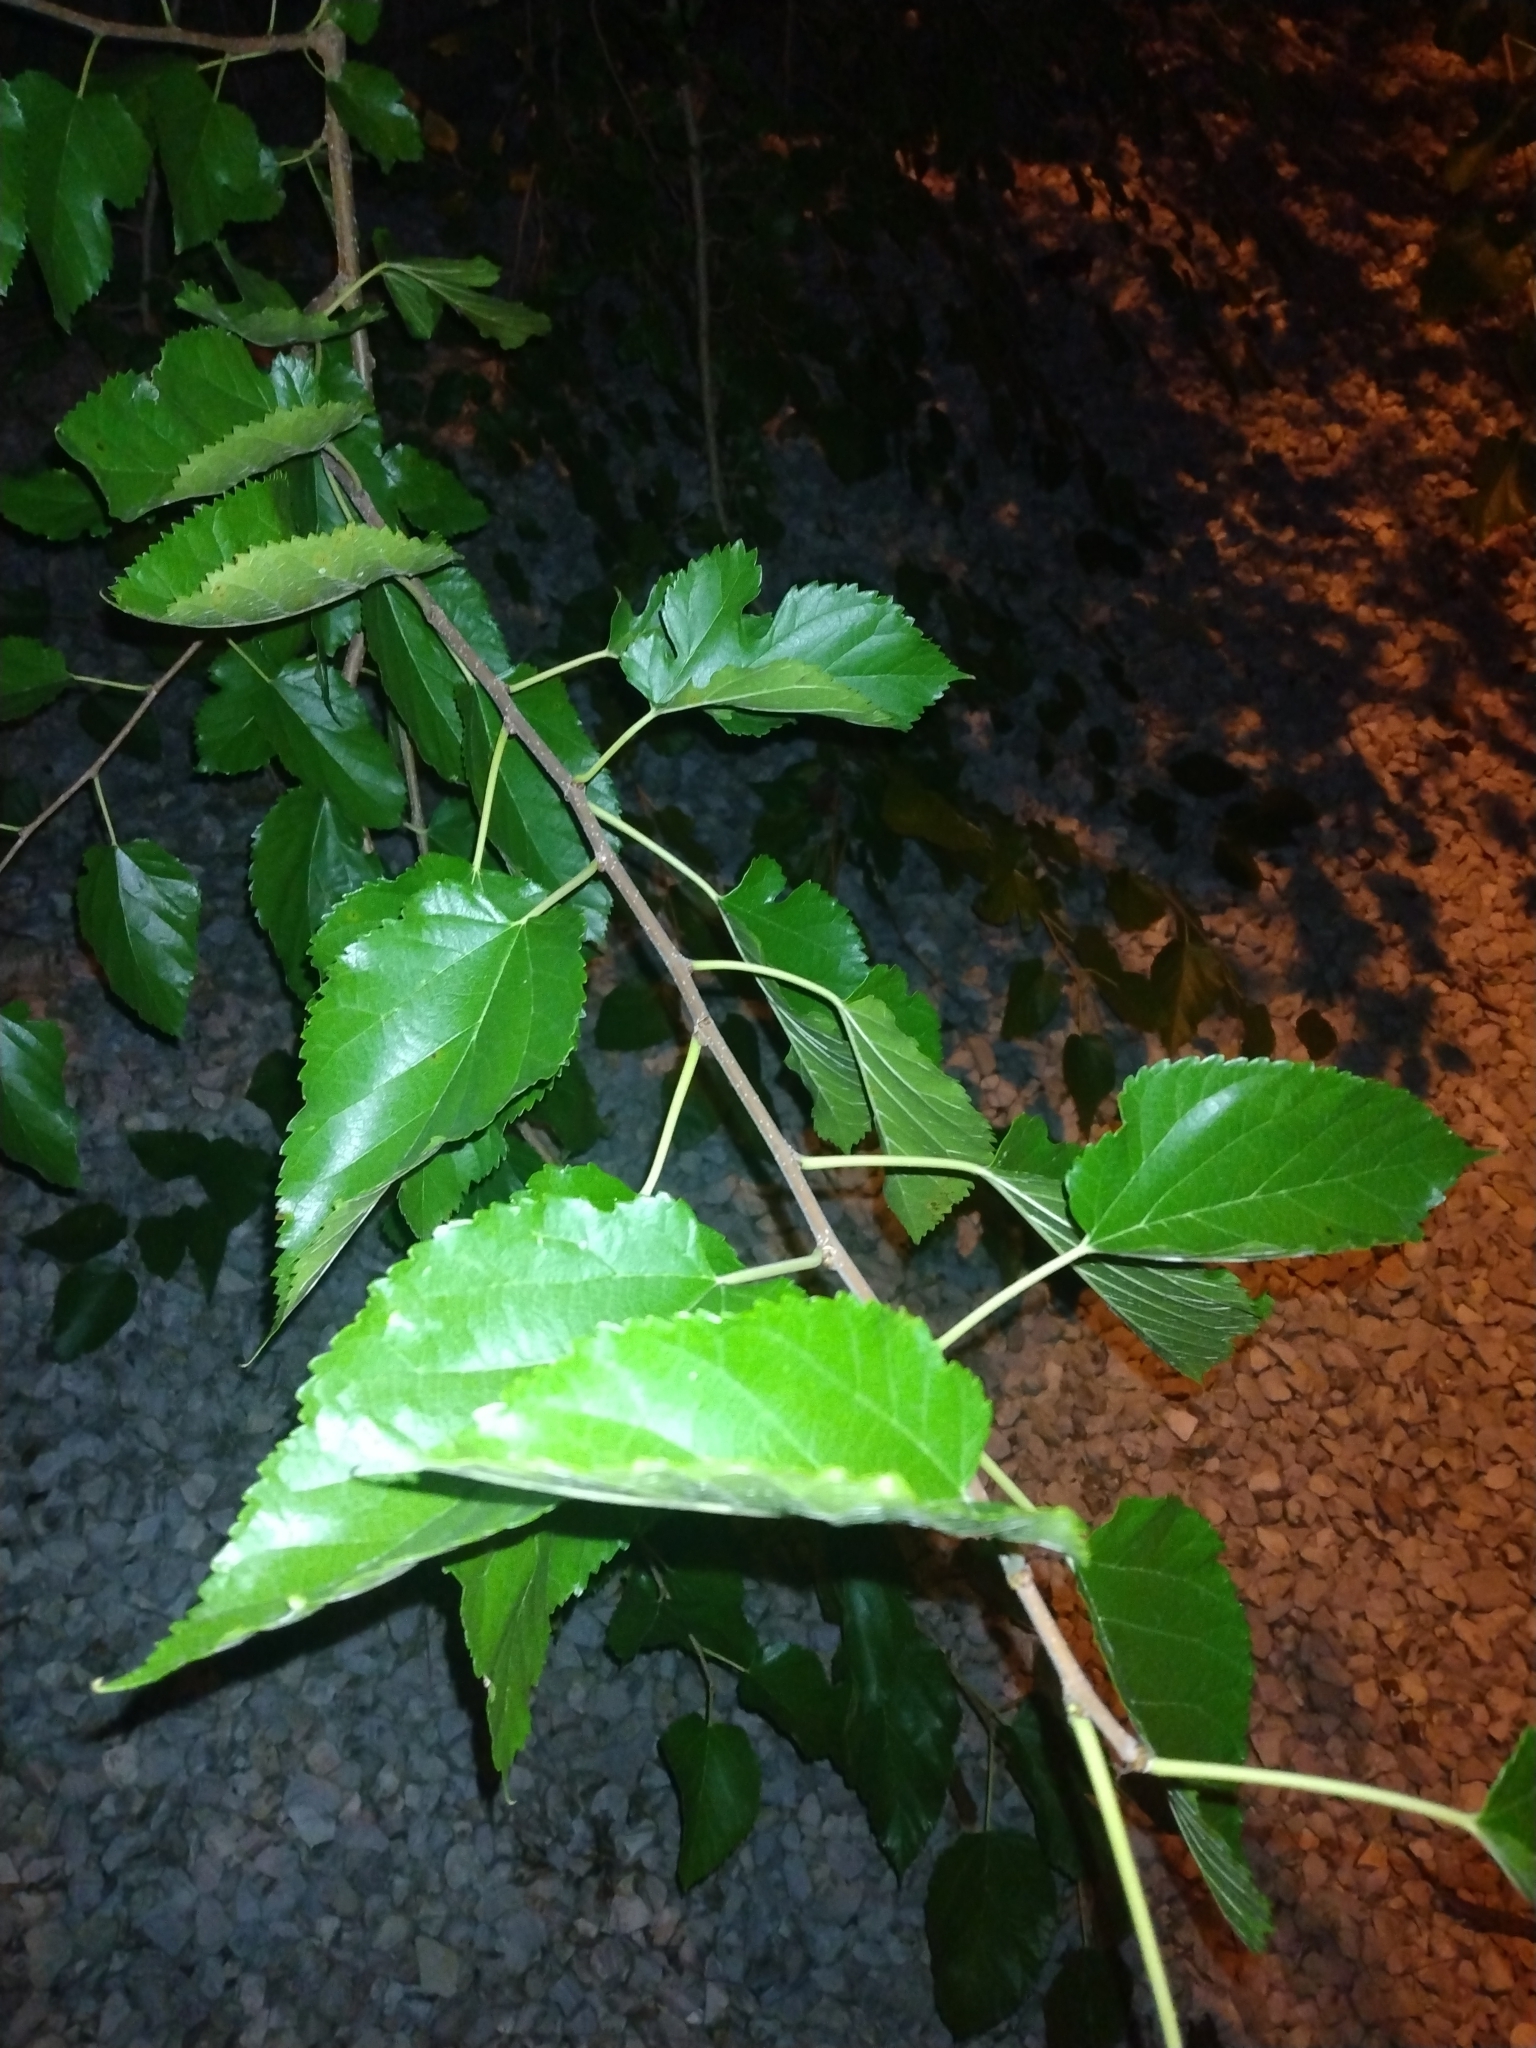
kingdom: Plantae
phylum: Tracheophyta
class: Magnoliopsida
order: Rosales
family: Moraceae
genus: Morus
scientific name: Morus alba
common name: White mulberry
